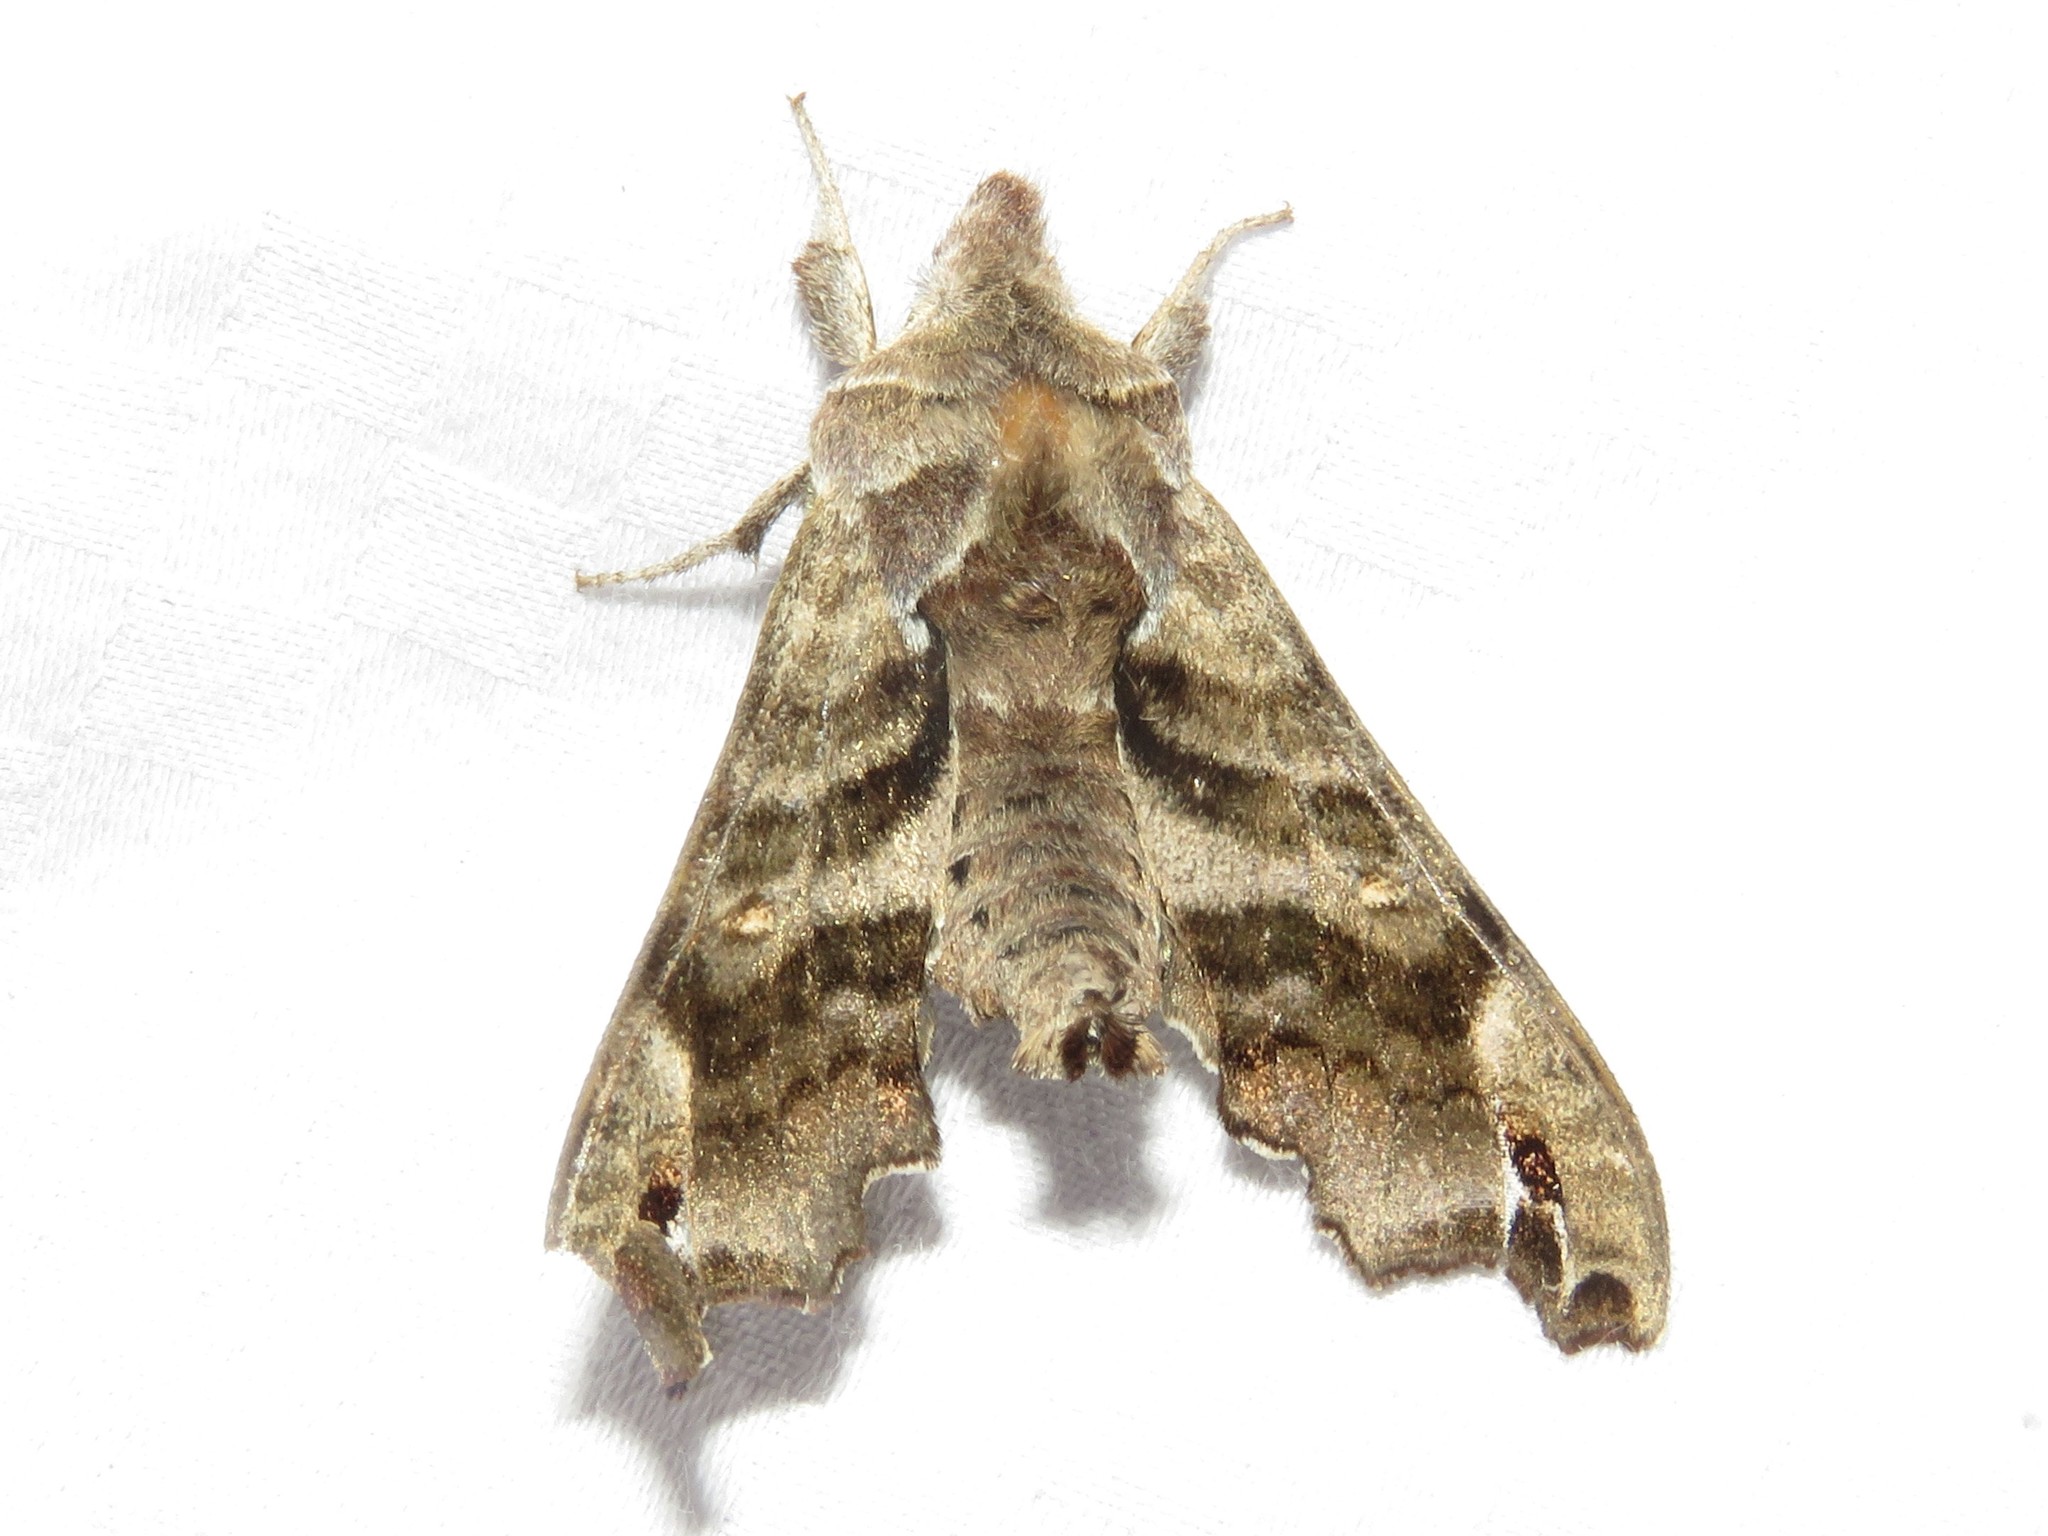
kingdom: Animalia
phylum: Arthropoda
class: Insecta
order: Lepidoptera
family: Sphingidae
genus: Deidamia
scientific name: Deidamia inscriptum
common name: Lettered sphinx
